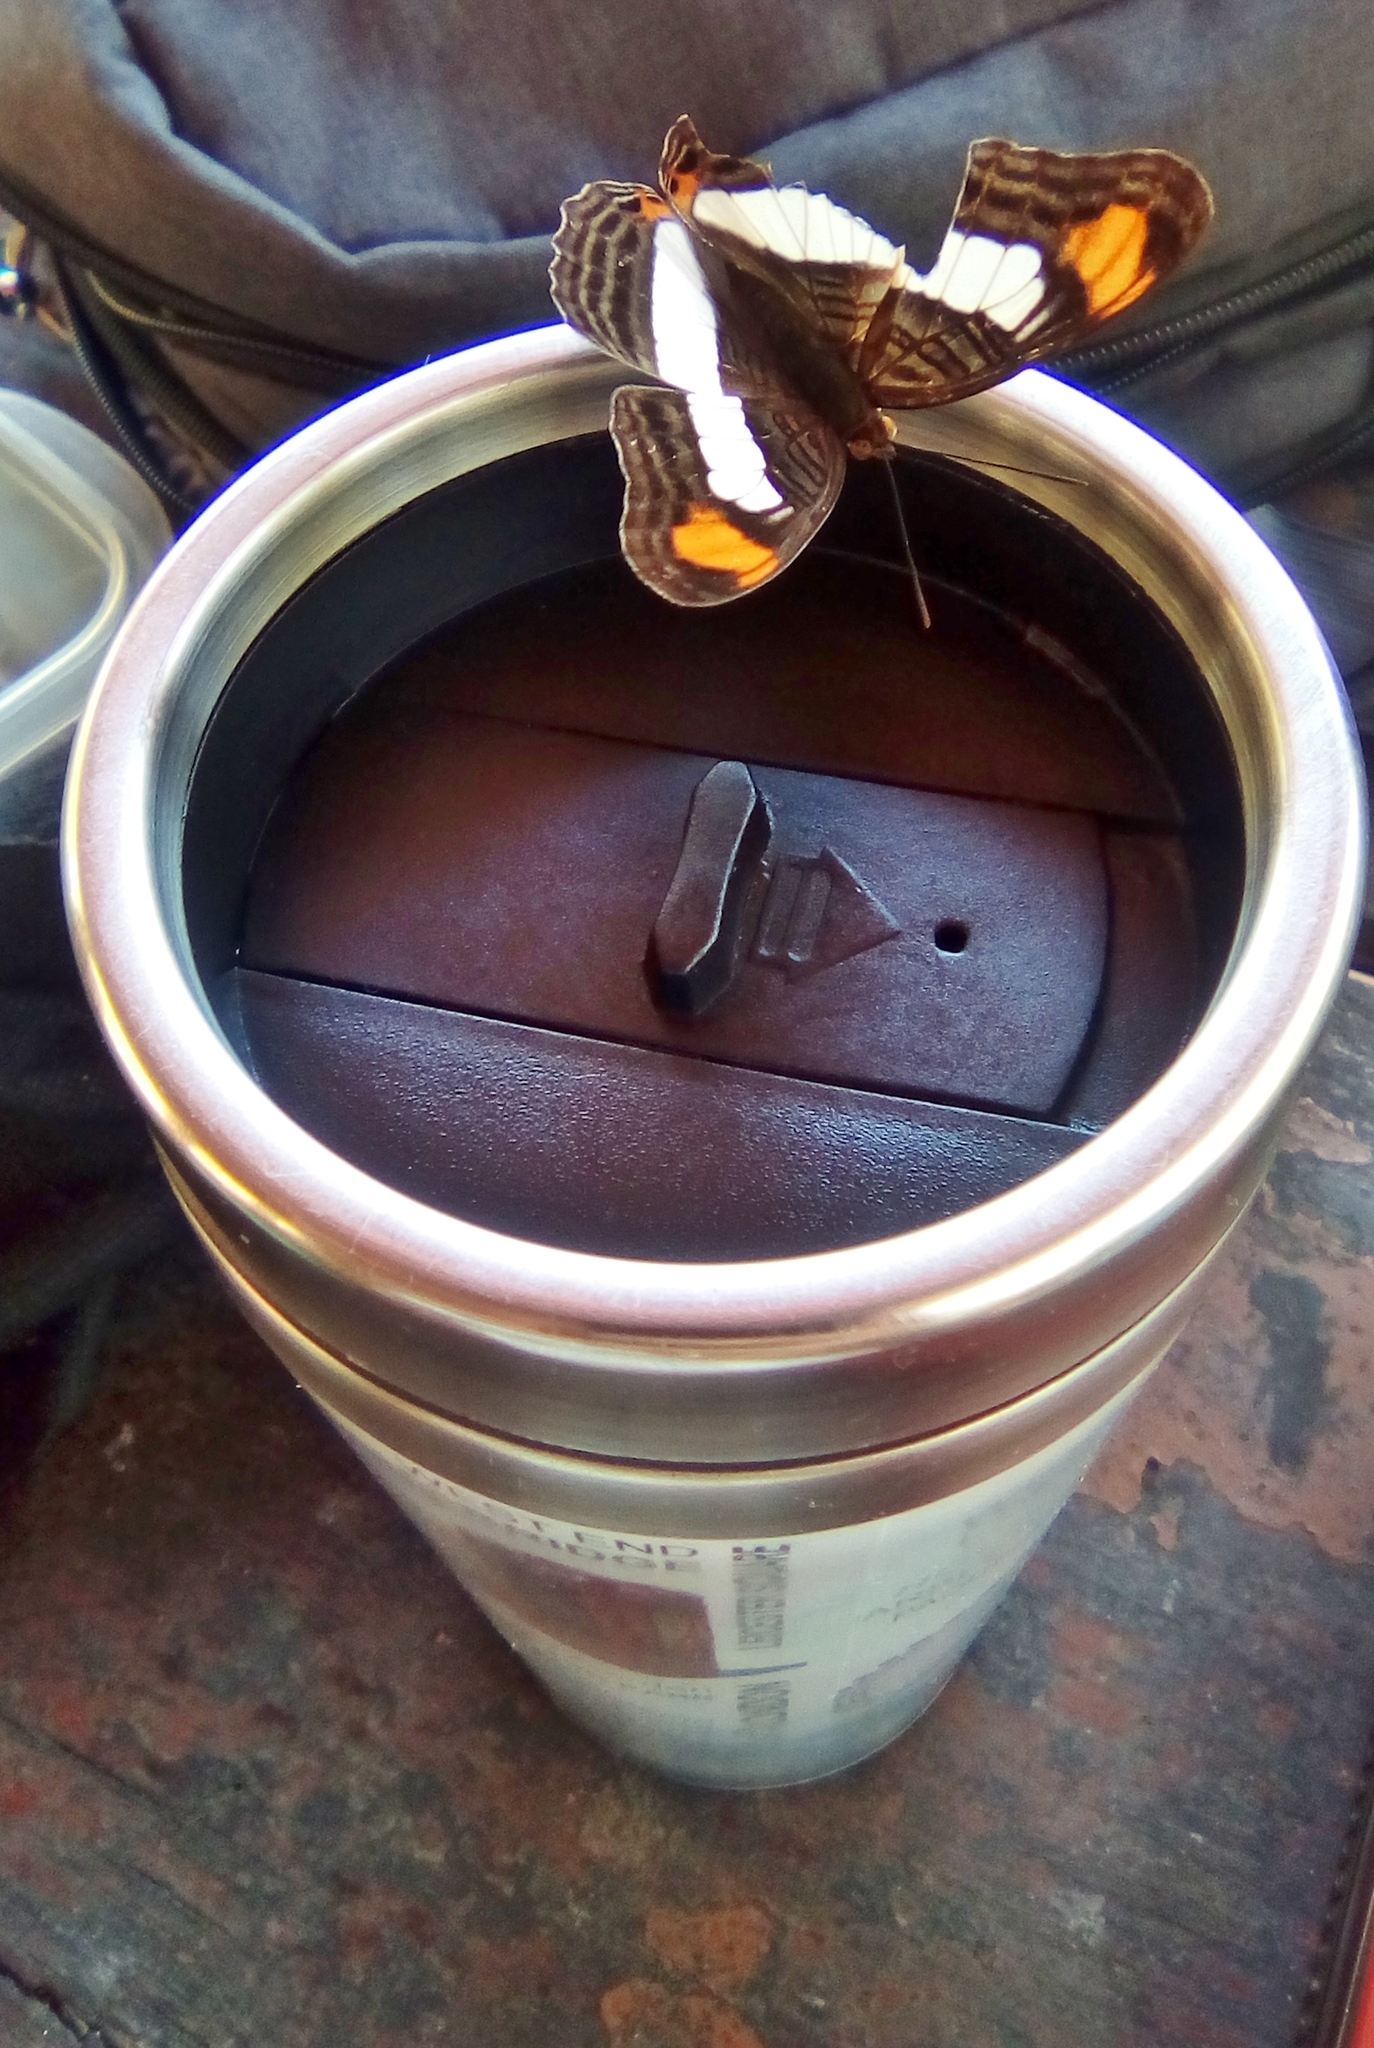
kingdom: Animalia
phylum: Arthropoda
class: Insecta
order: Lepidoptera
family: Nymphalidae
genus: Limenitis
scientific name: Limenitis Adelpha basiloides
